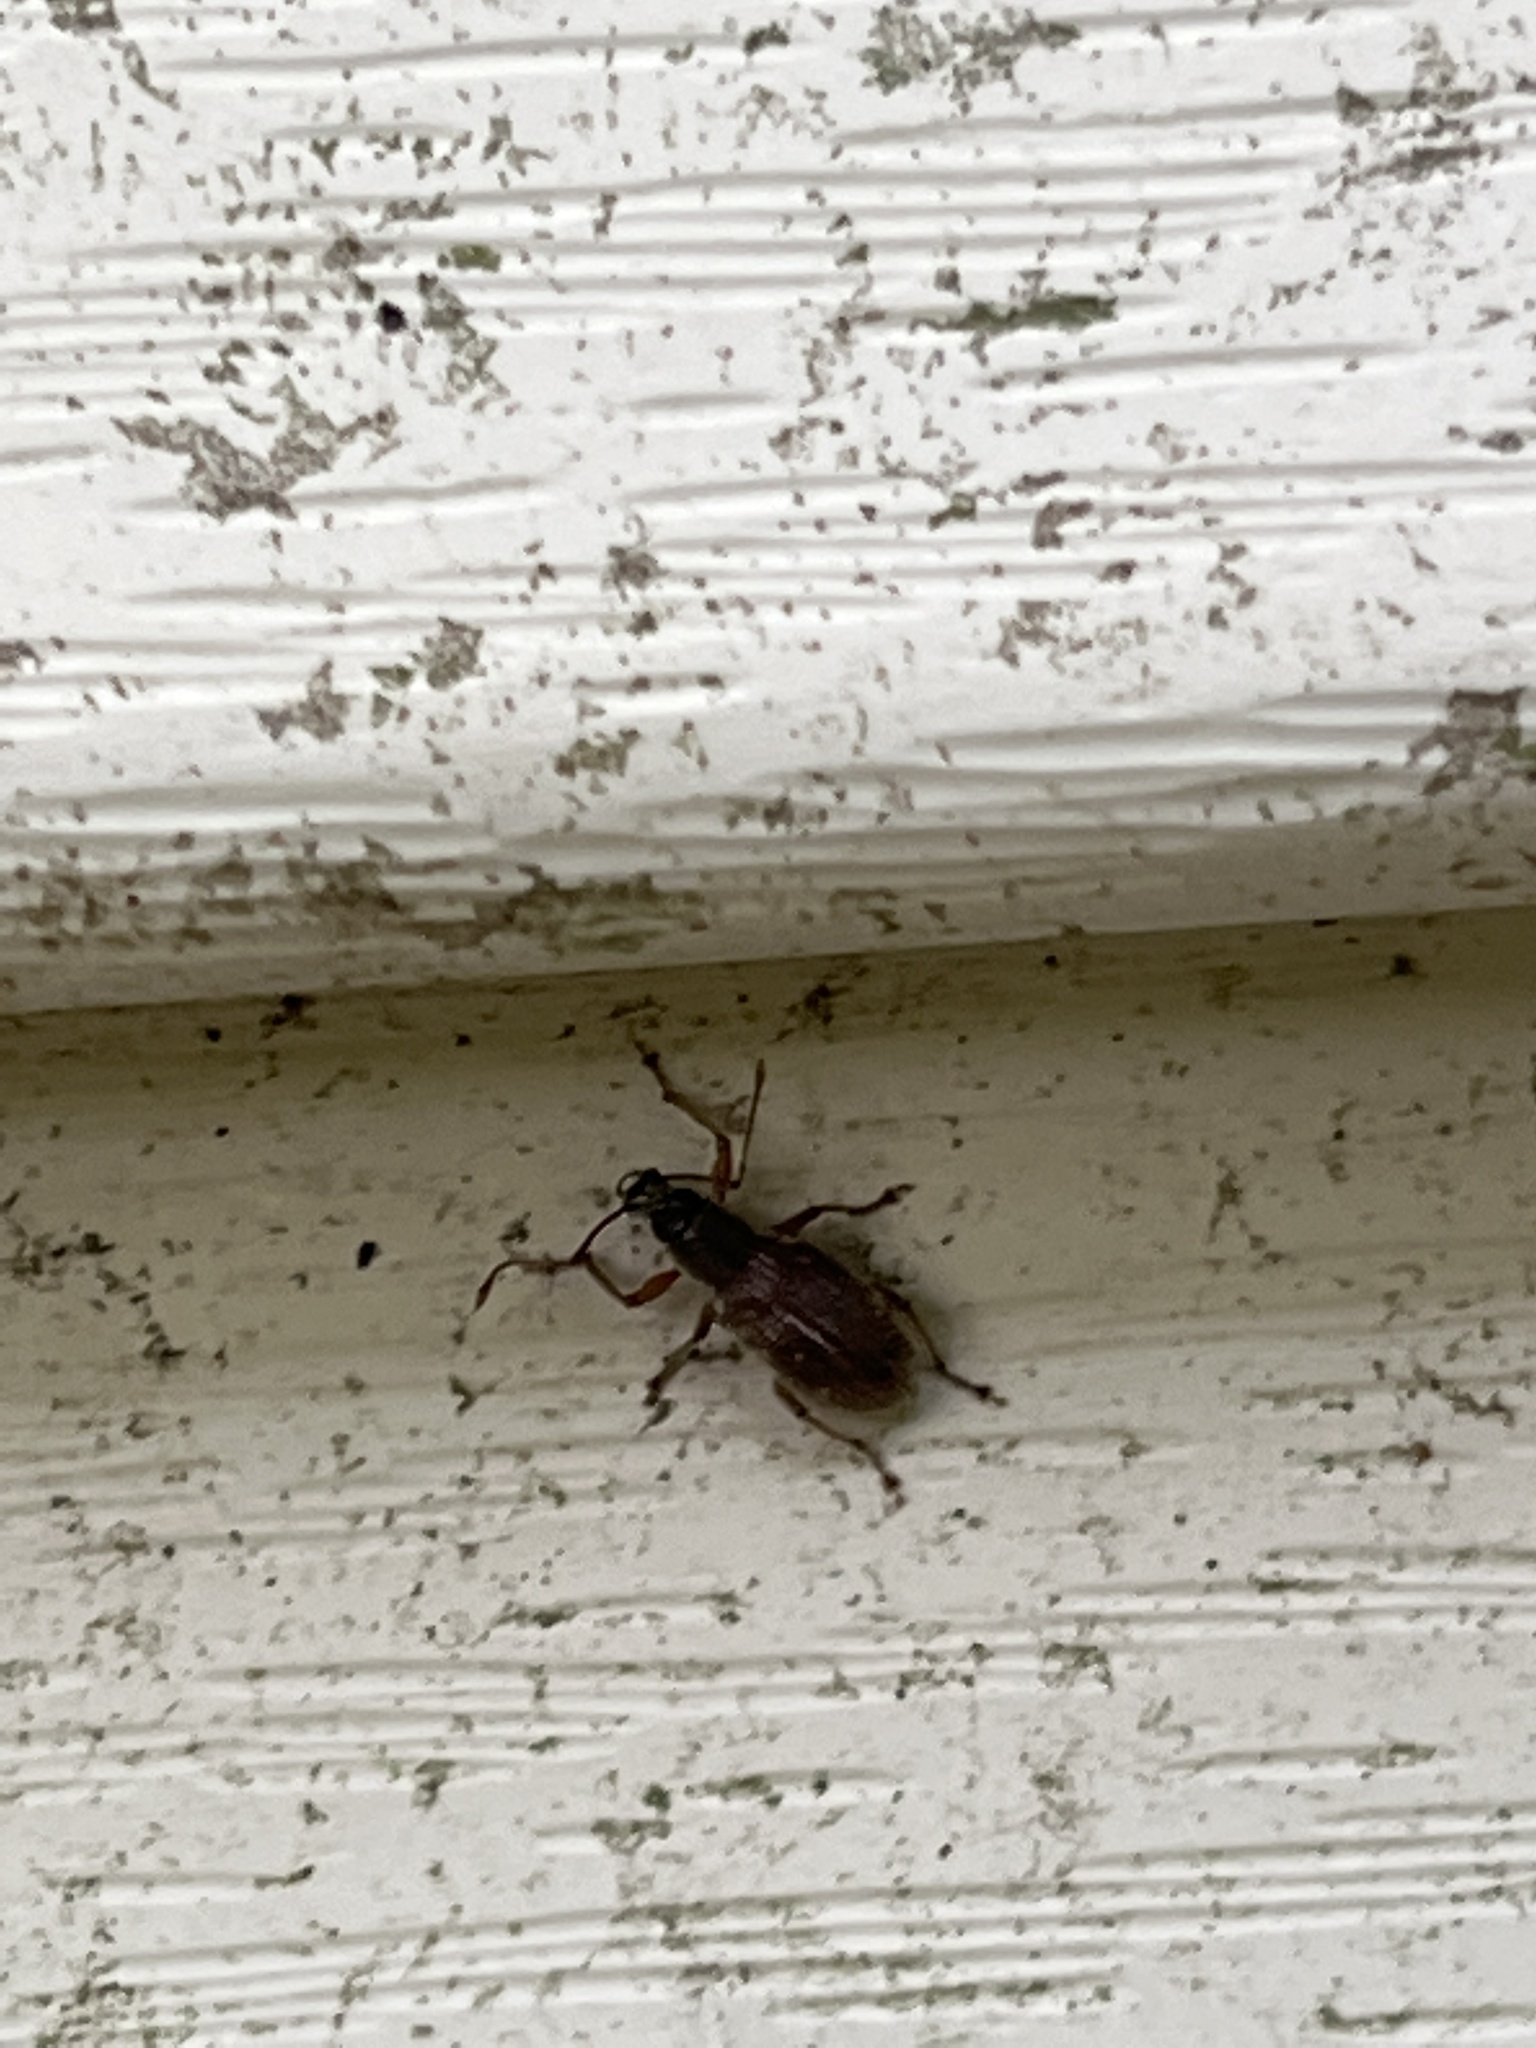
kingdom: Animalia
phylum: Arthropoda
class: Insecta
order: Coleoptera
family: Curculionidae
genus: Cyrtepistomus
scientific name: Cyrtepistomus castaneus
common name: Weevil
